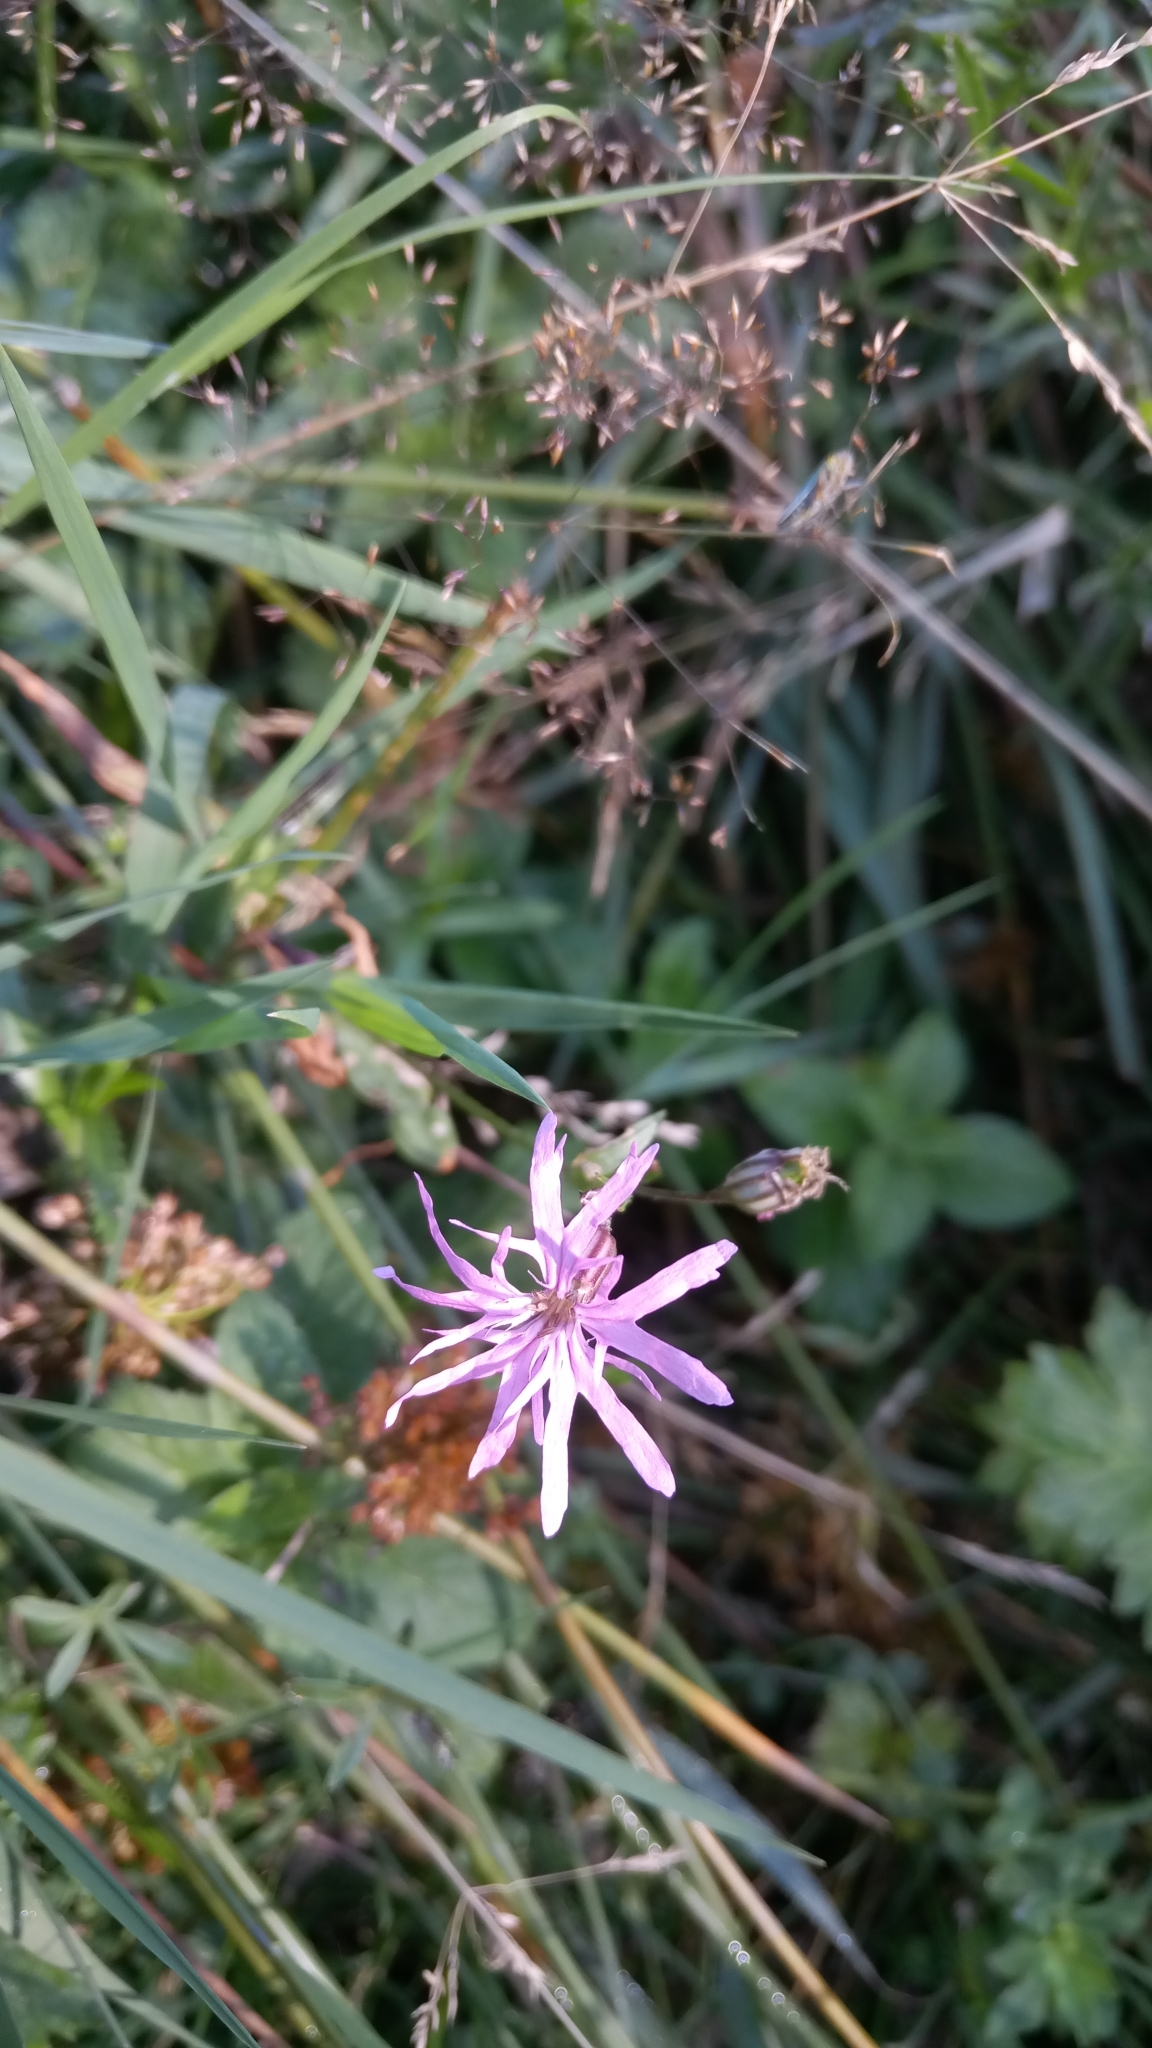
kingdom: Plantae
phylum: Tracheophyta
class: Magnoliopsida
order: Caryophyllales
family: Caryophyllaceae
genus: Silene
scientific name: Silene flos-cuculi
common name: Ragged-robin
